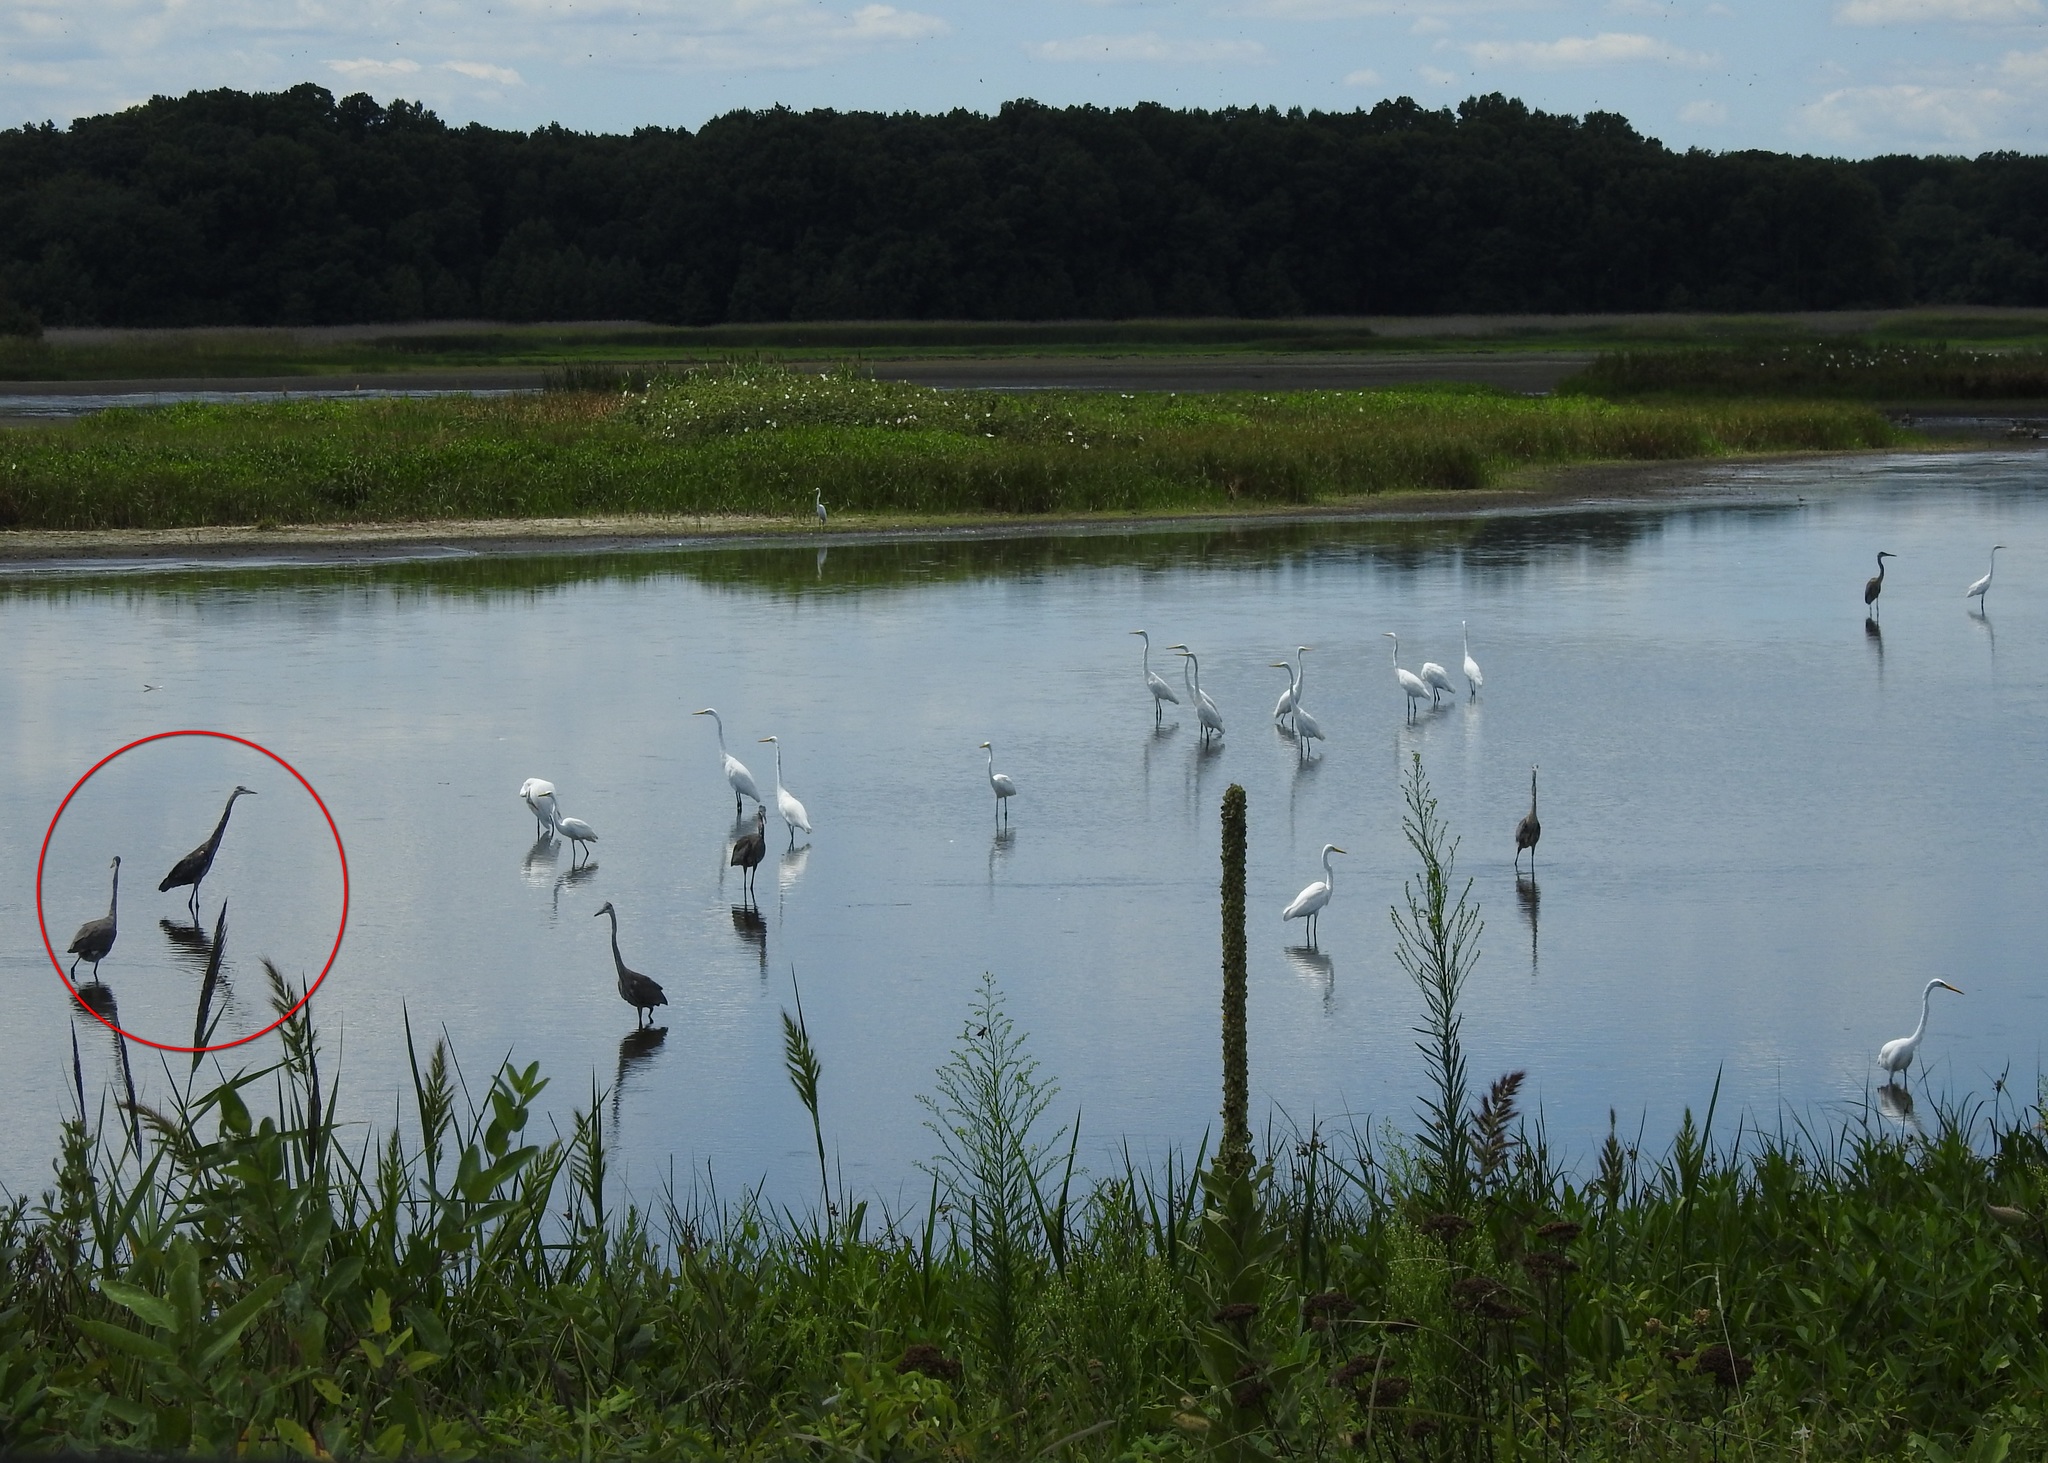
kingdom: Animalia
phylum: Chordata
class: Aves
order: Pelecaniformes
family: Ardeidae
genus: Ardea
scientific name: Ardea herodias
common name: Great blue heron
